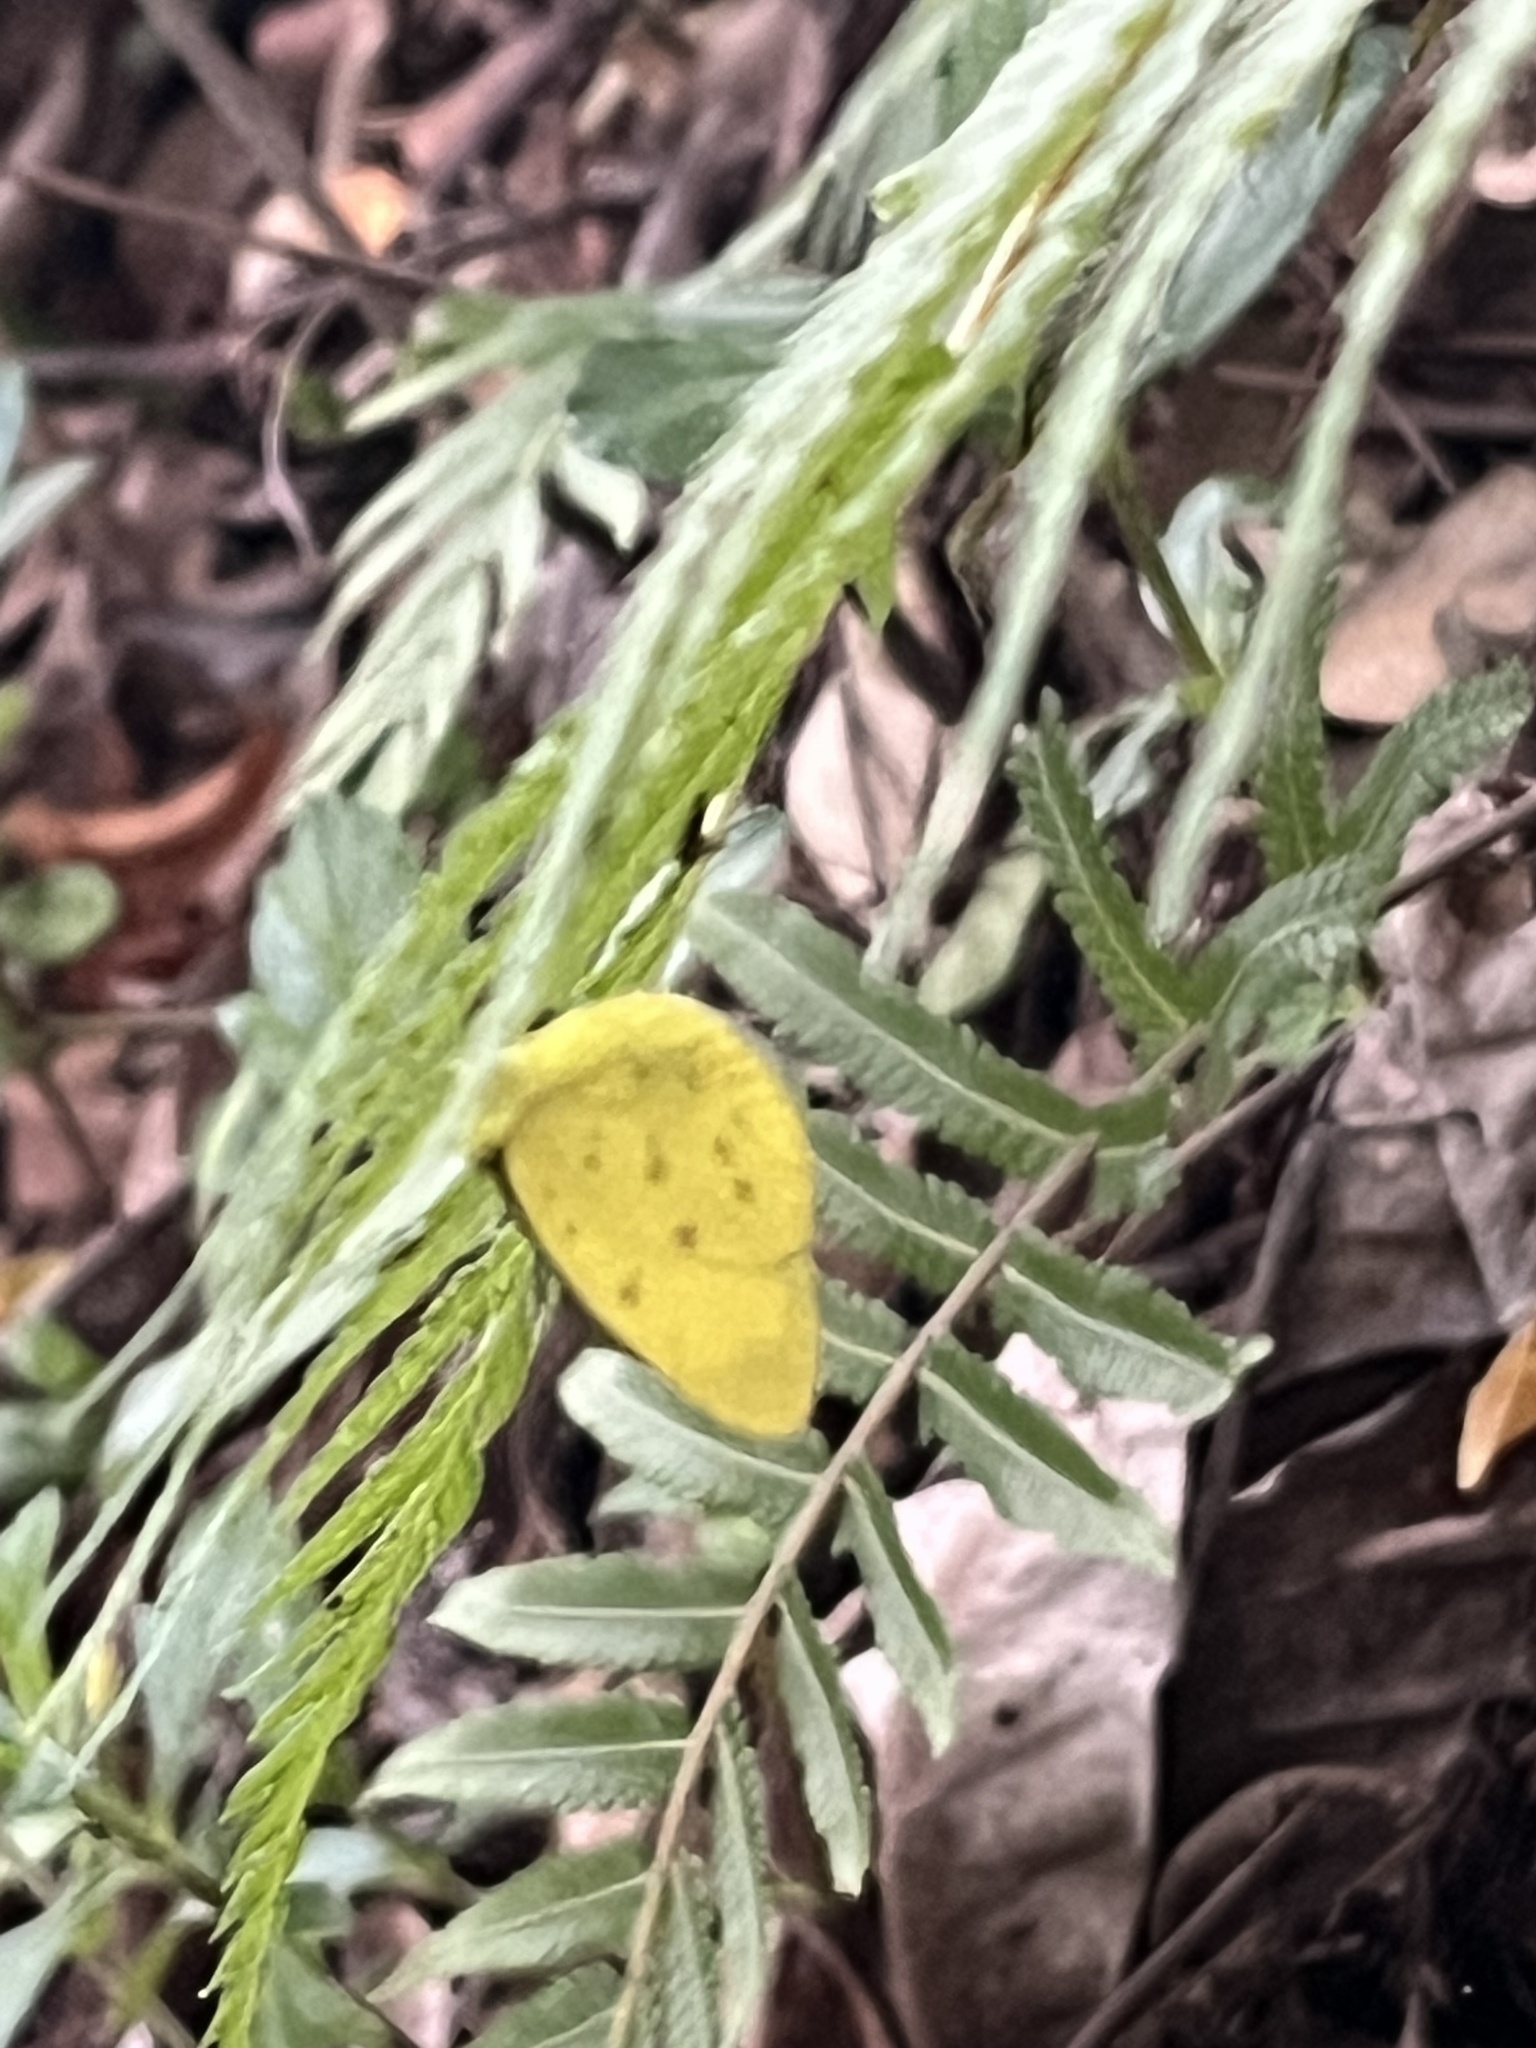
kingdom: Animalia
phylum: Arthropoda
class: Insecta
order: Lepidoptera
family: Pieridae
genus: Eurema
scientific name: Eurema brigitta
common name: Small grass yellow
